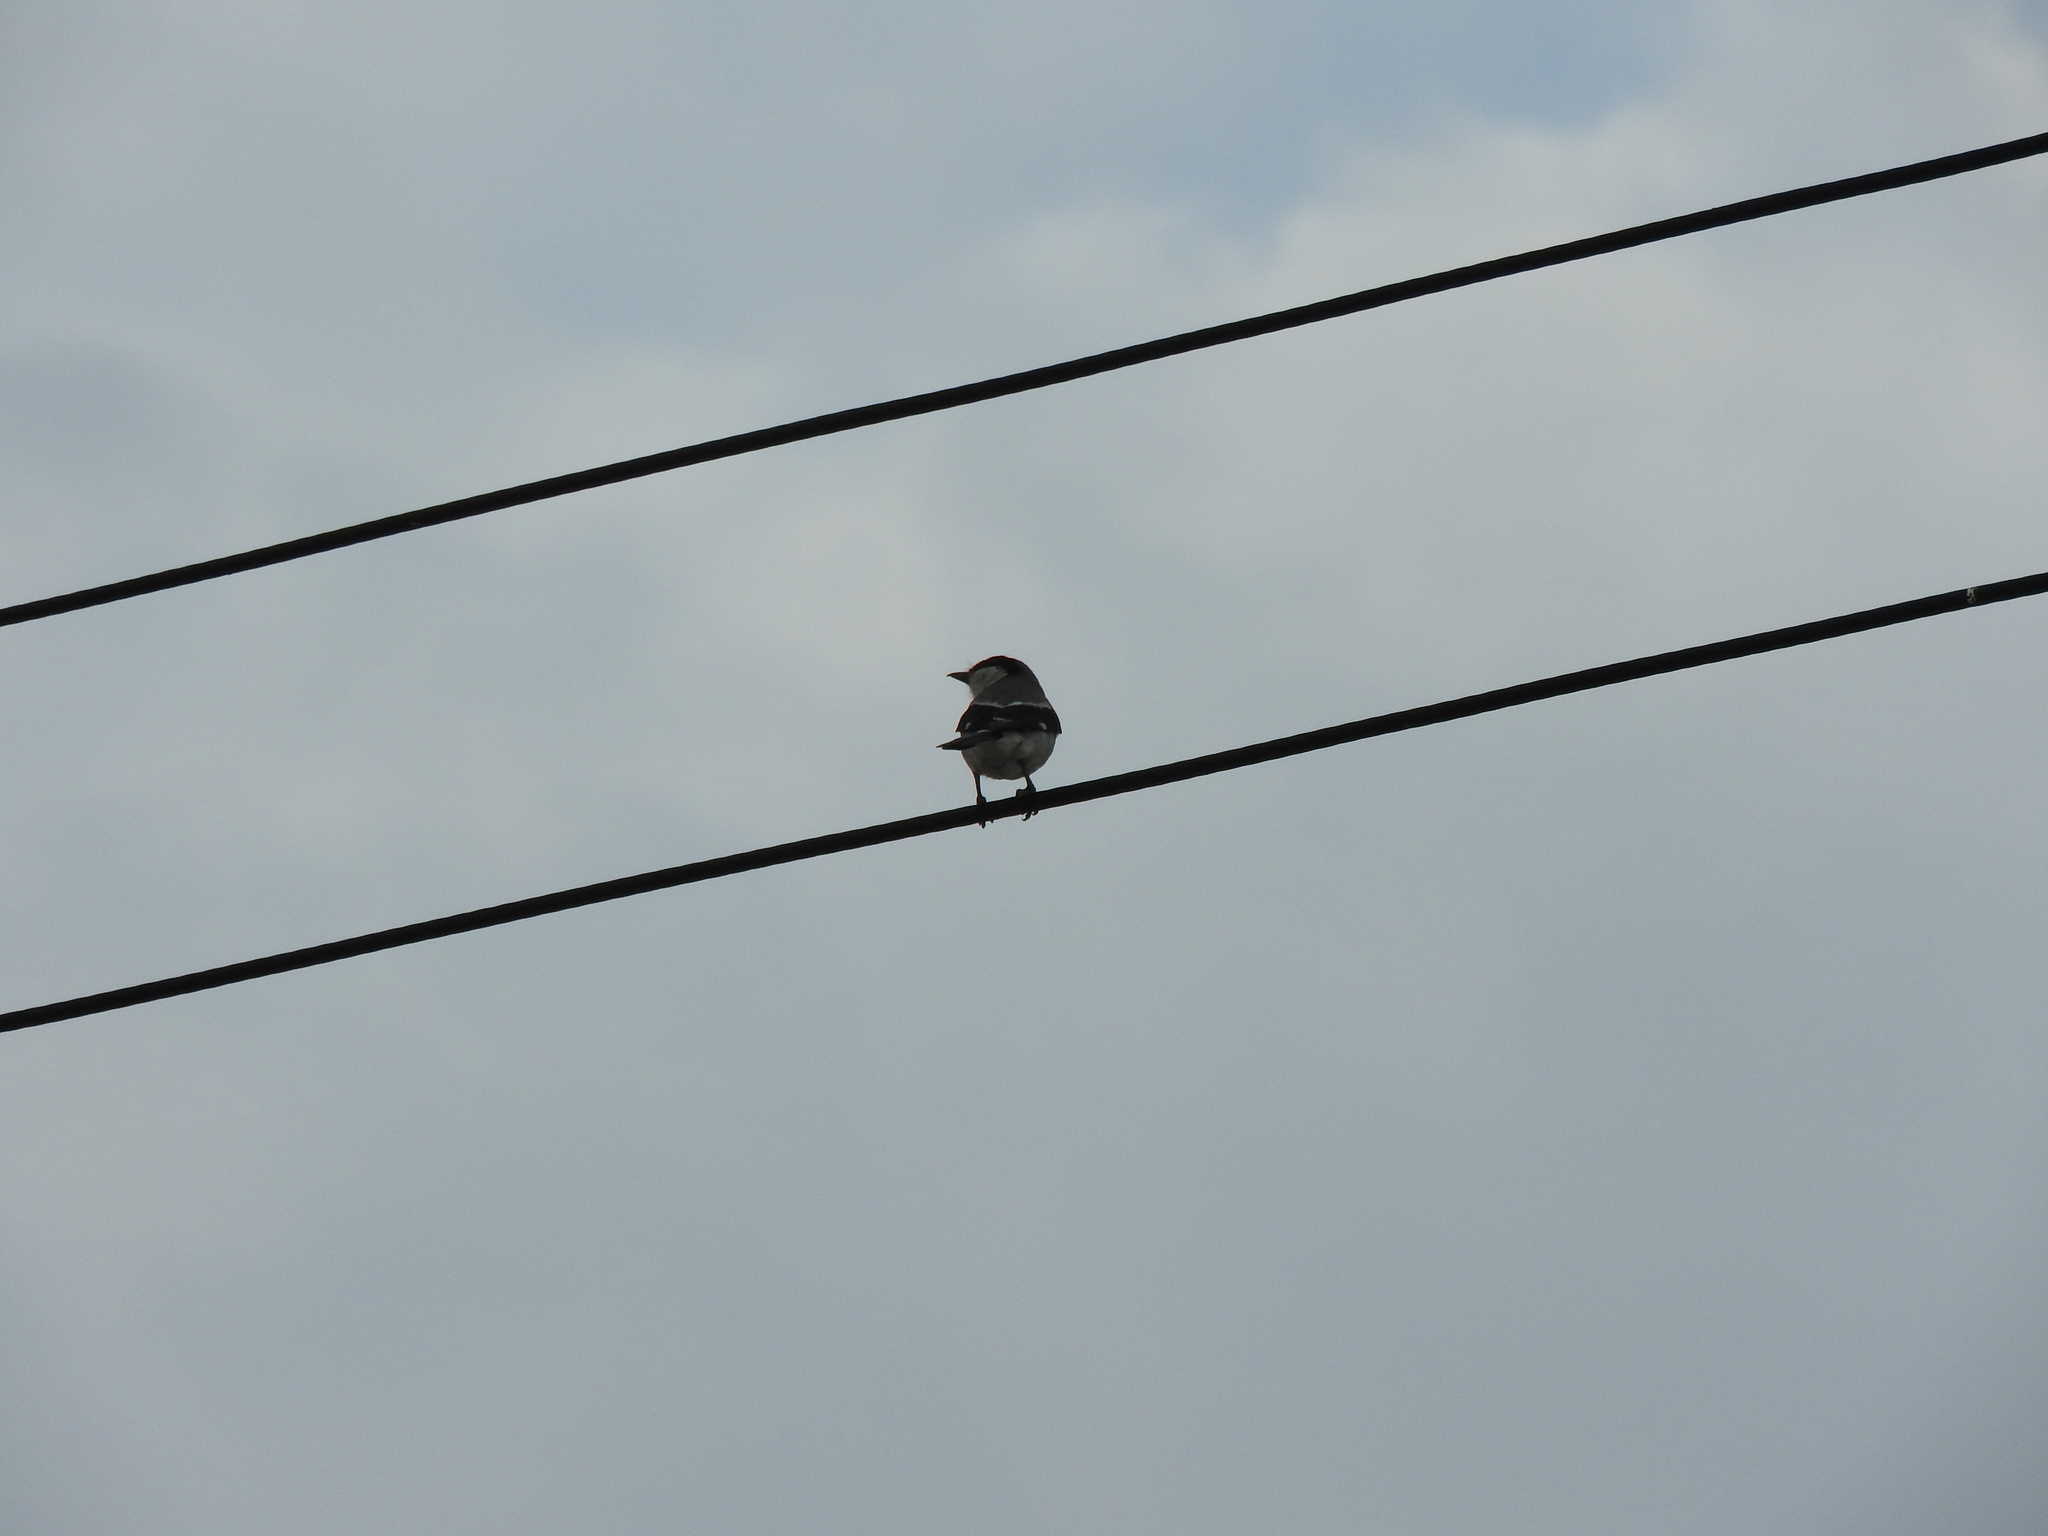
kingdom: Animalia
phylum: Chordata
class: Aves
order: Passeriformes
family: Laniidae
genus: Lanius
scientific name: Lanius ludovicianus
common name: Loggerhead shrike
